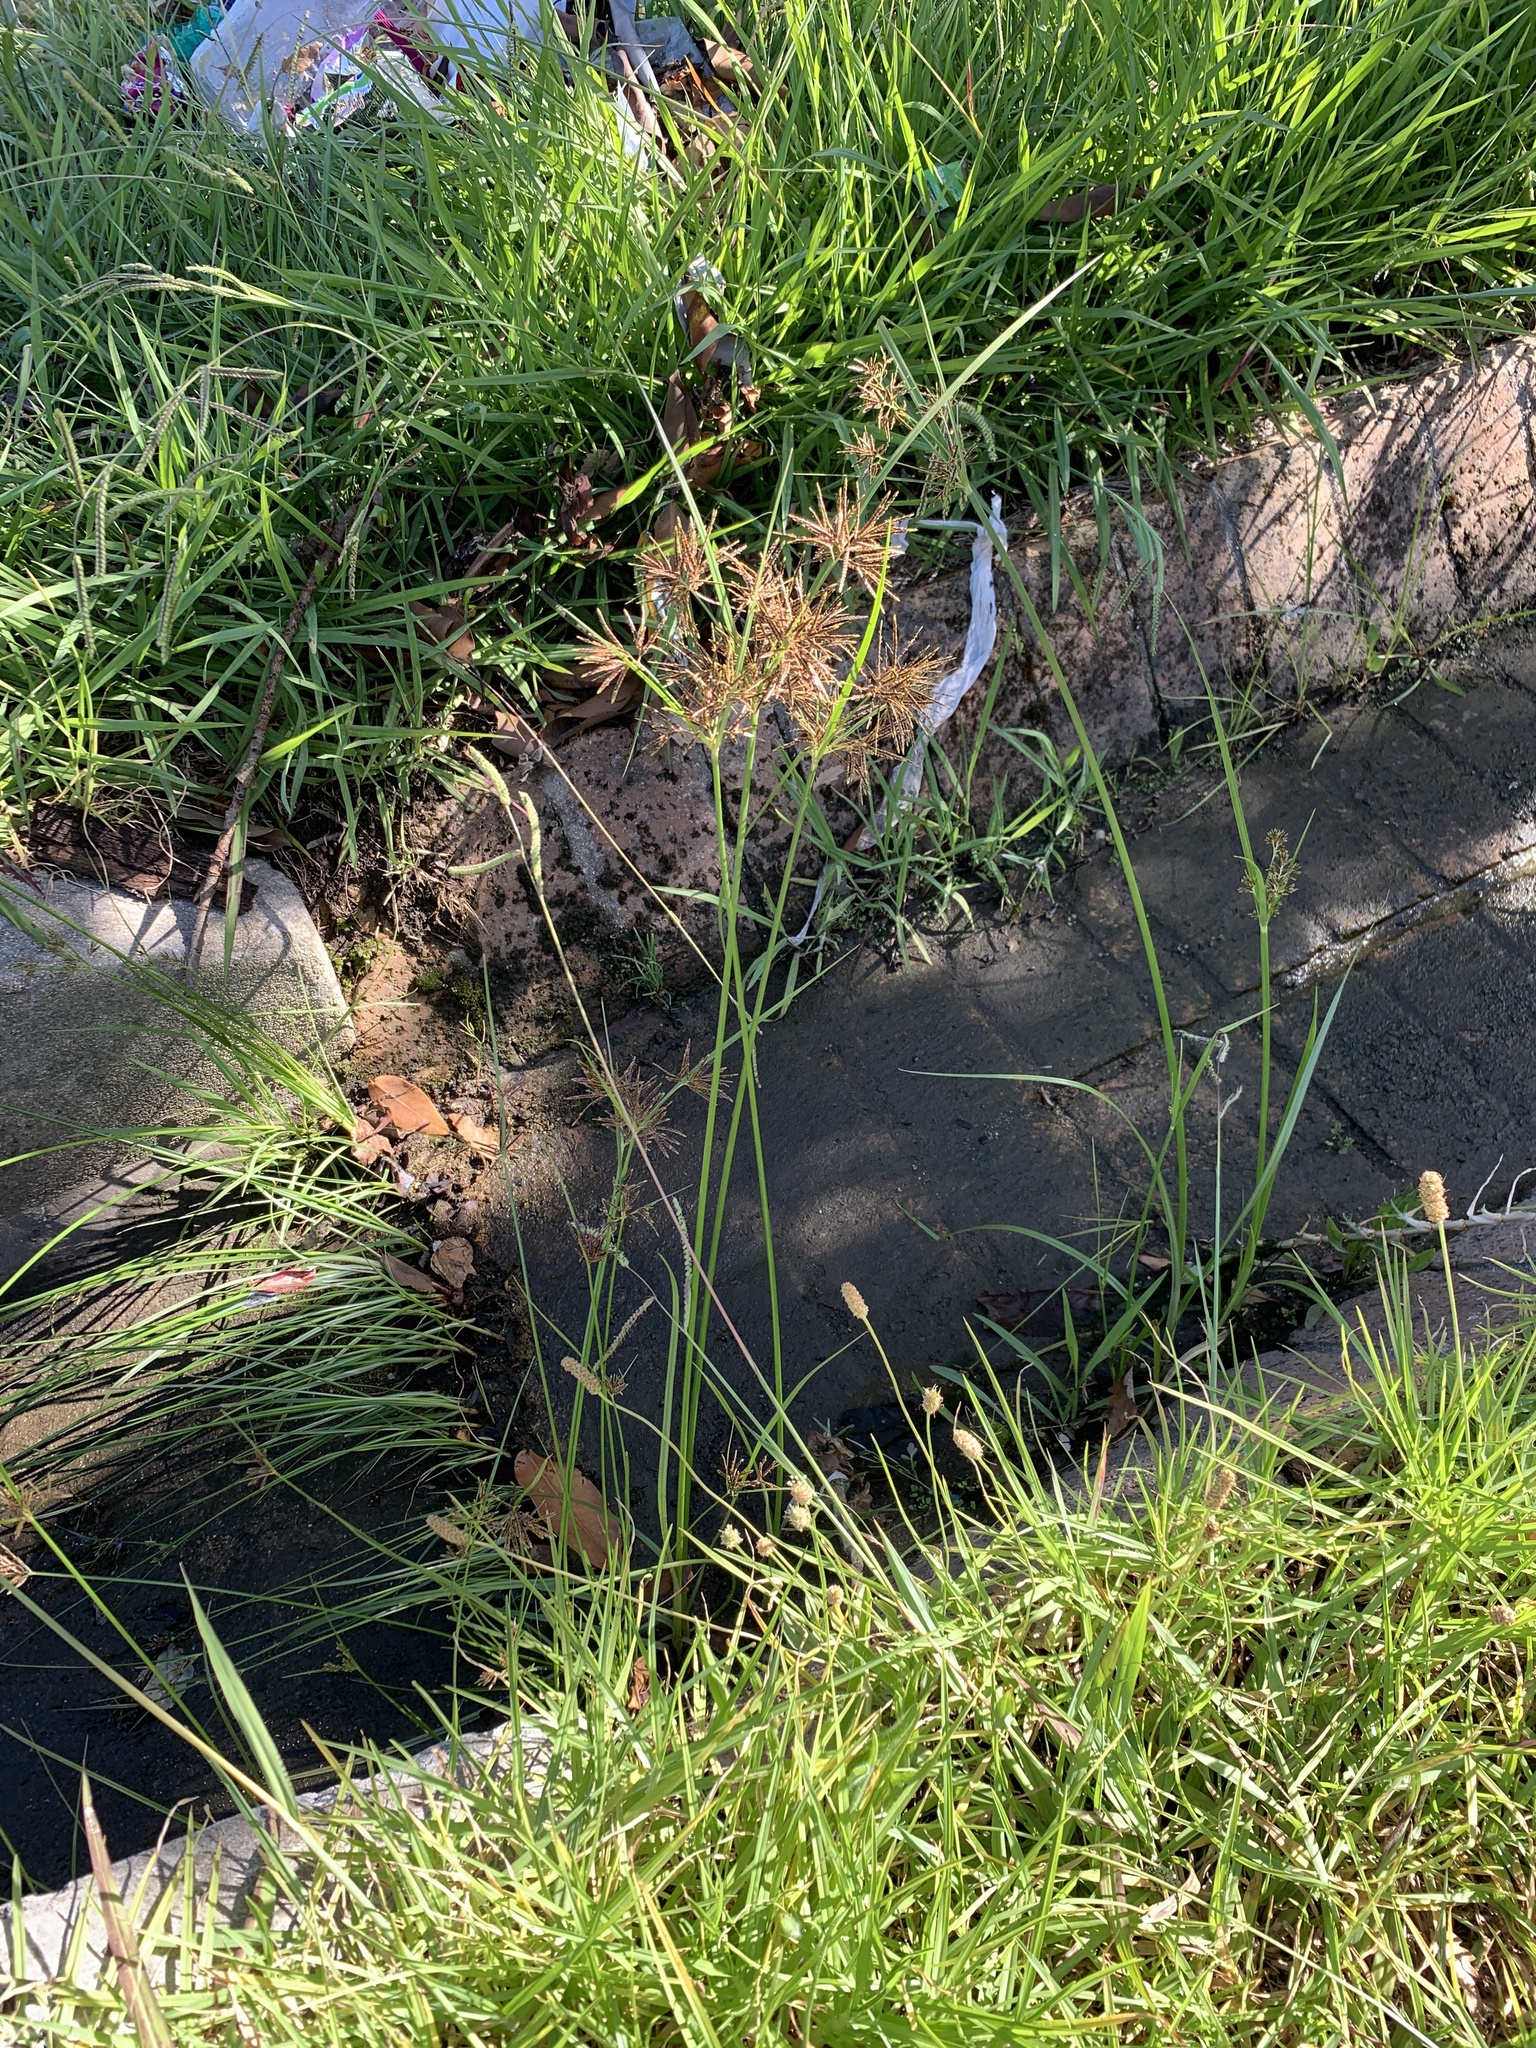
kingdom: Plantae
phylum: Tracheophyta
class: Liliopsida
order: Poales
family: Cyperaceae
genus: Cyperus
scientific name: Cyperus longus
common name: Galingale
